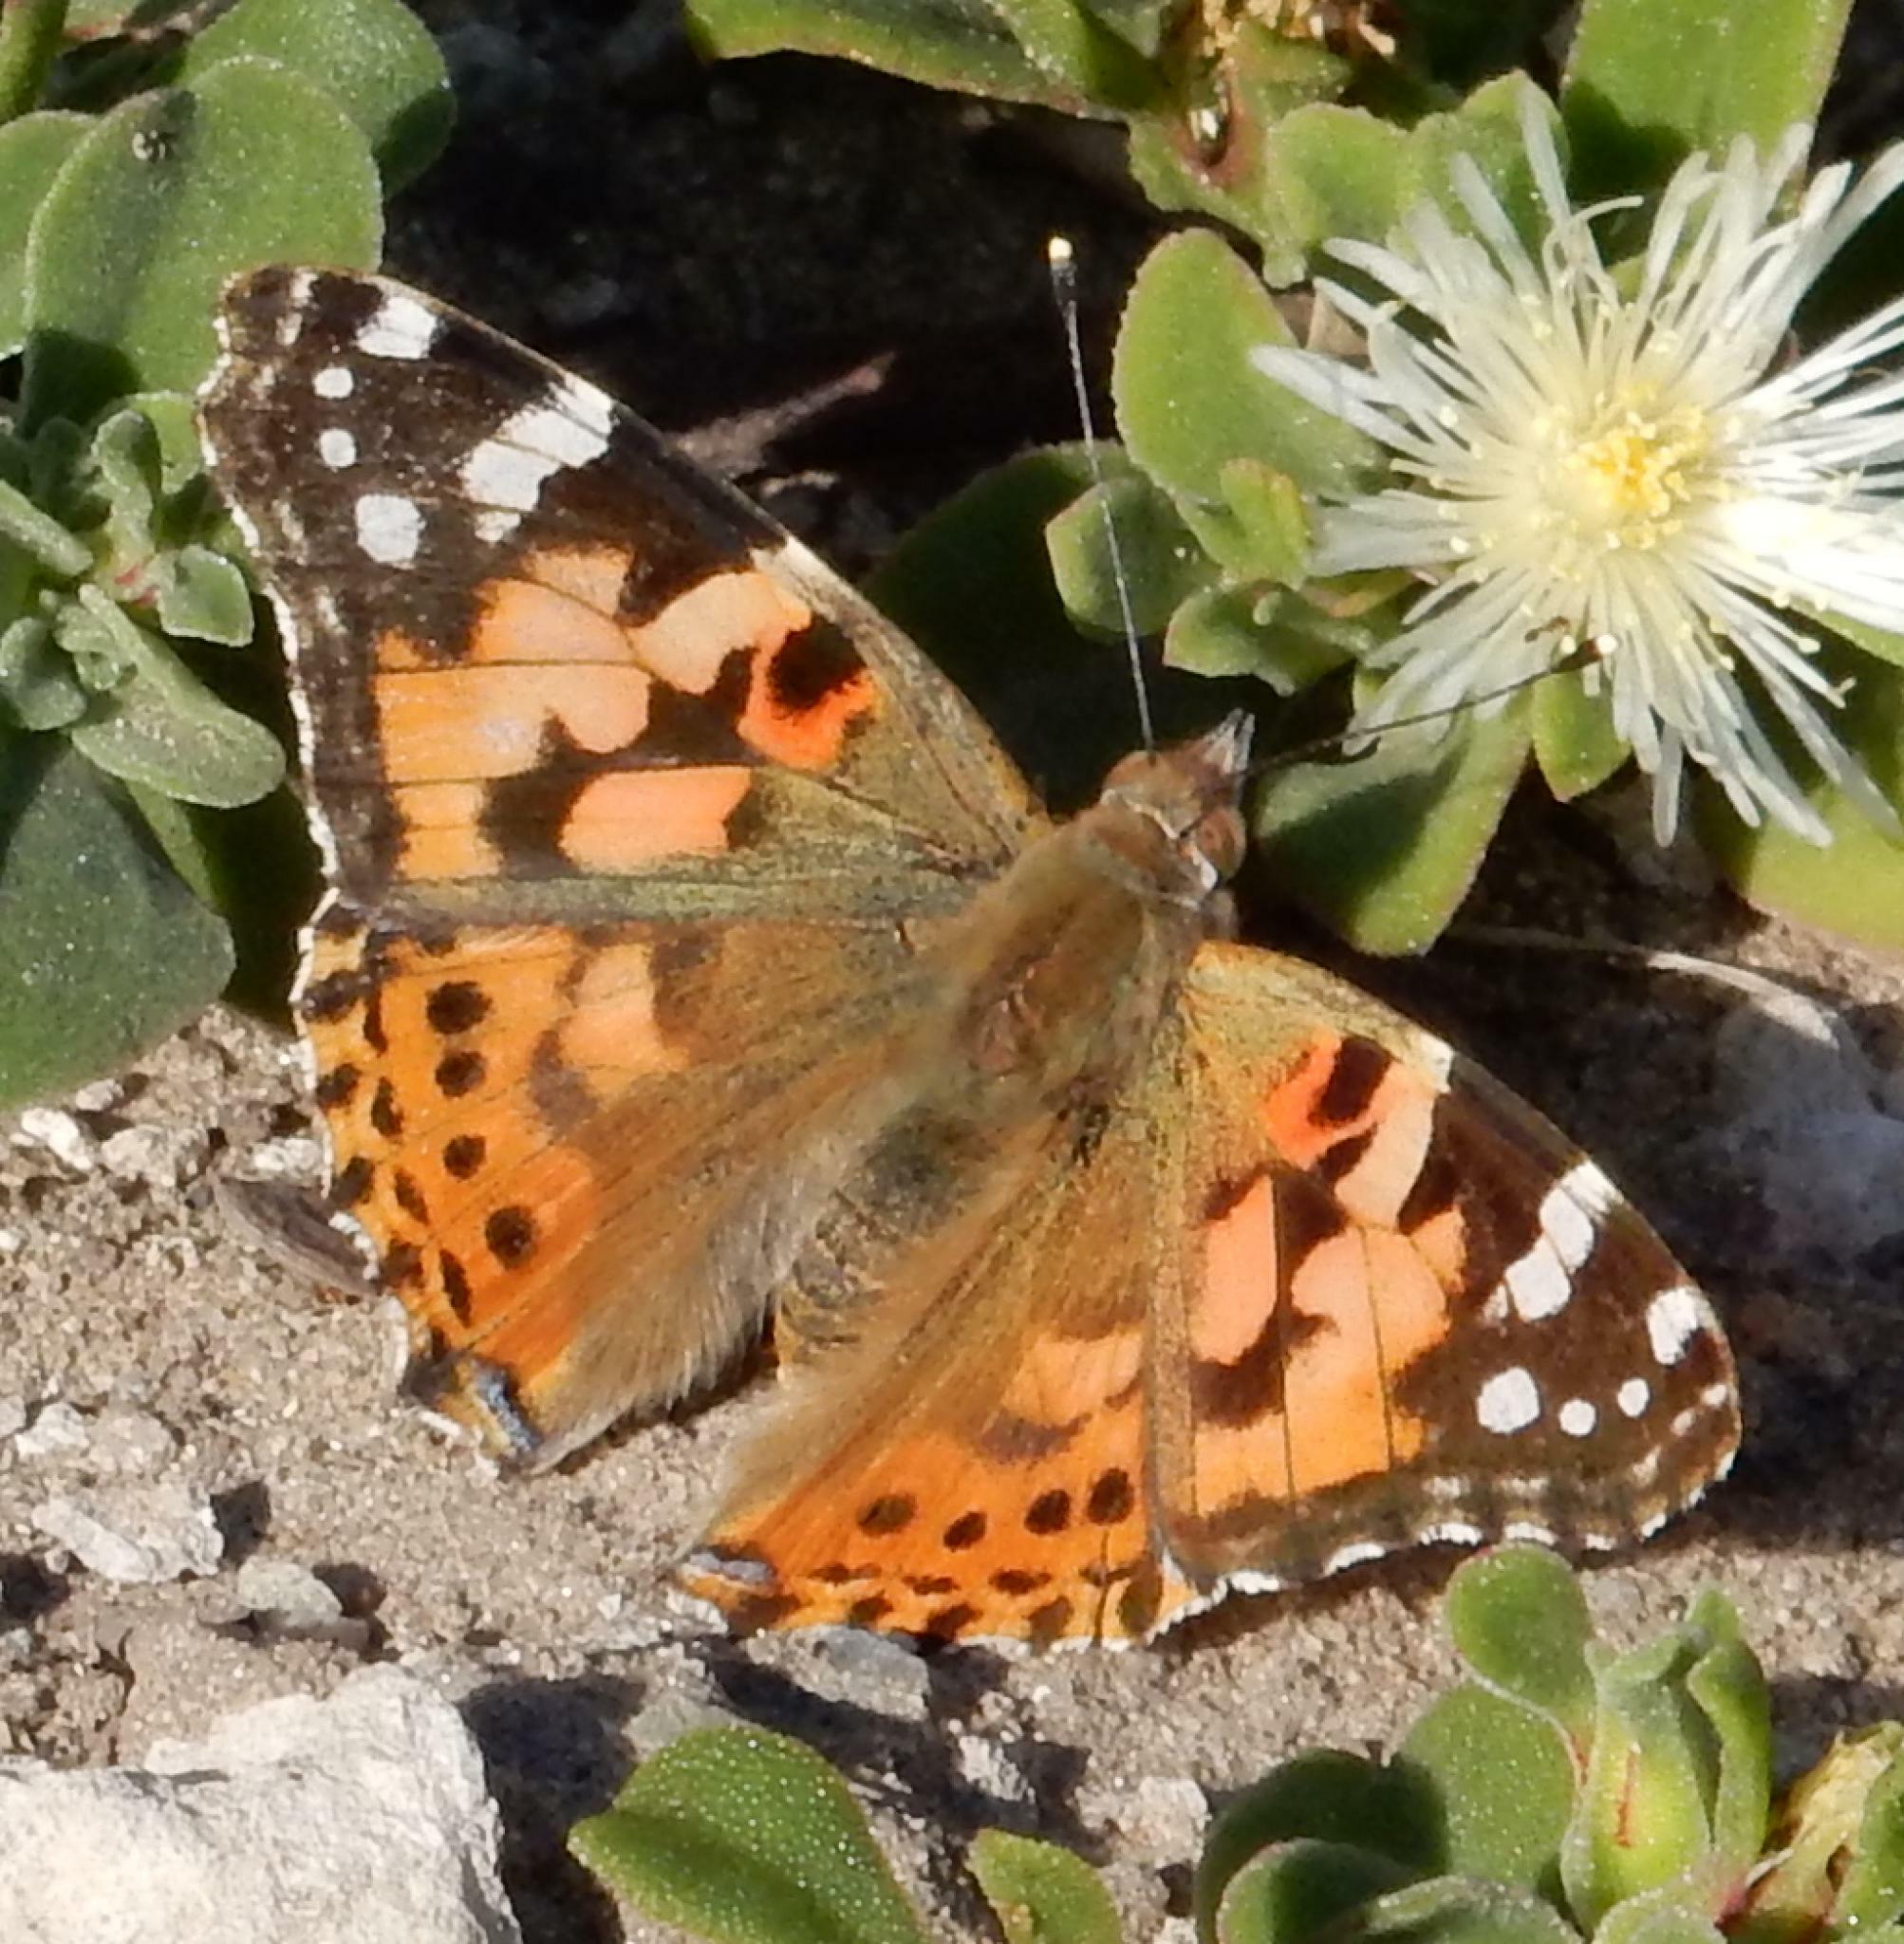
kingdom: Animalia
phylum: Arthropoda
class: Insecta
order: Lepidoptera
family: Nymphalidae
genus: Vanessa
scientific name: Vanessa cardui
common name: Painted lady
